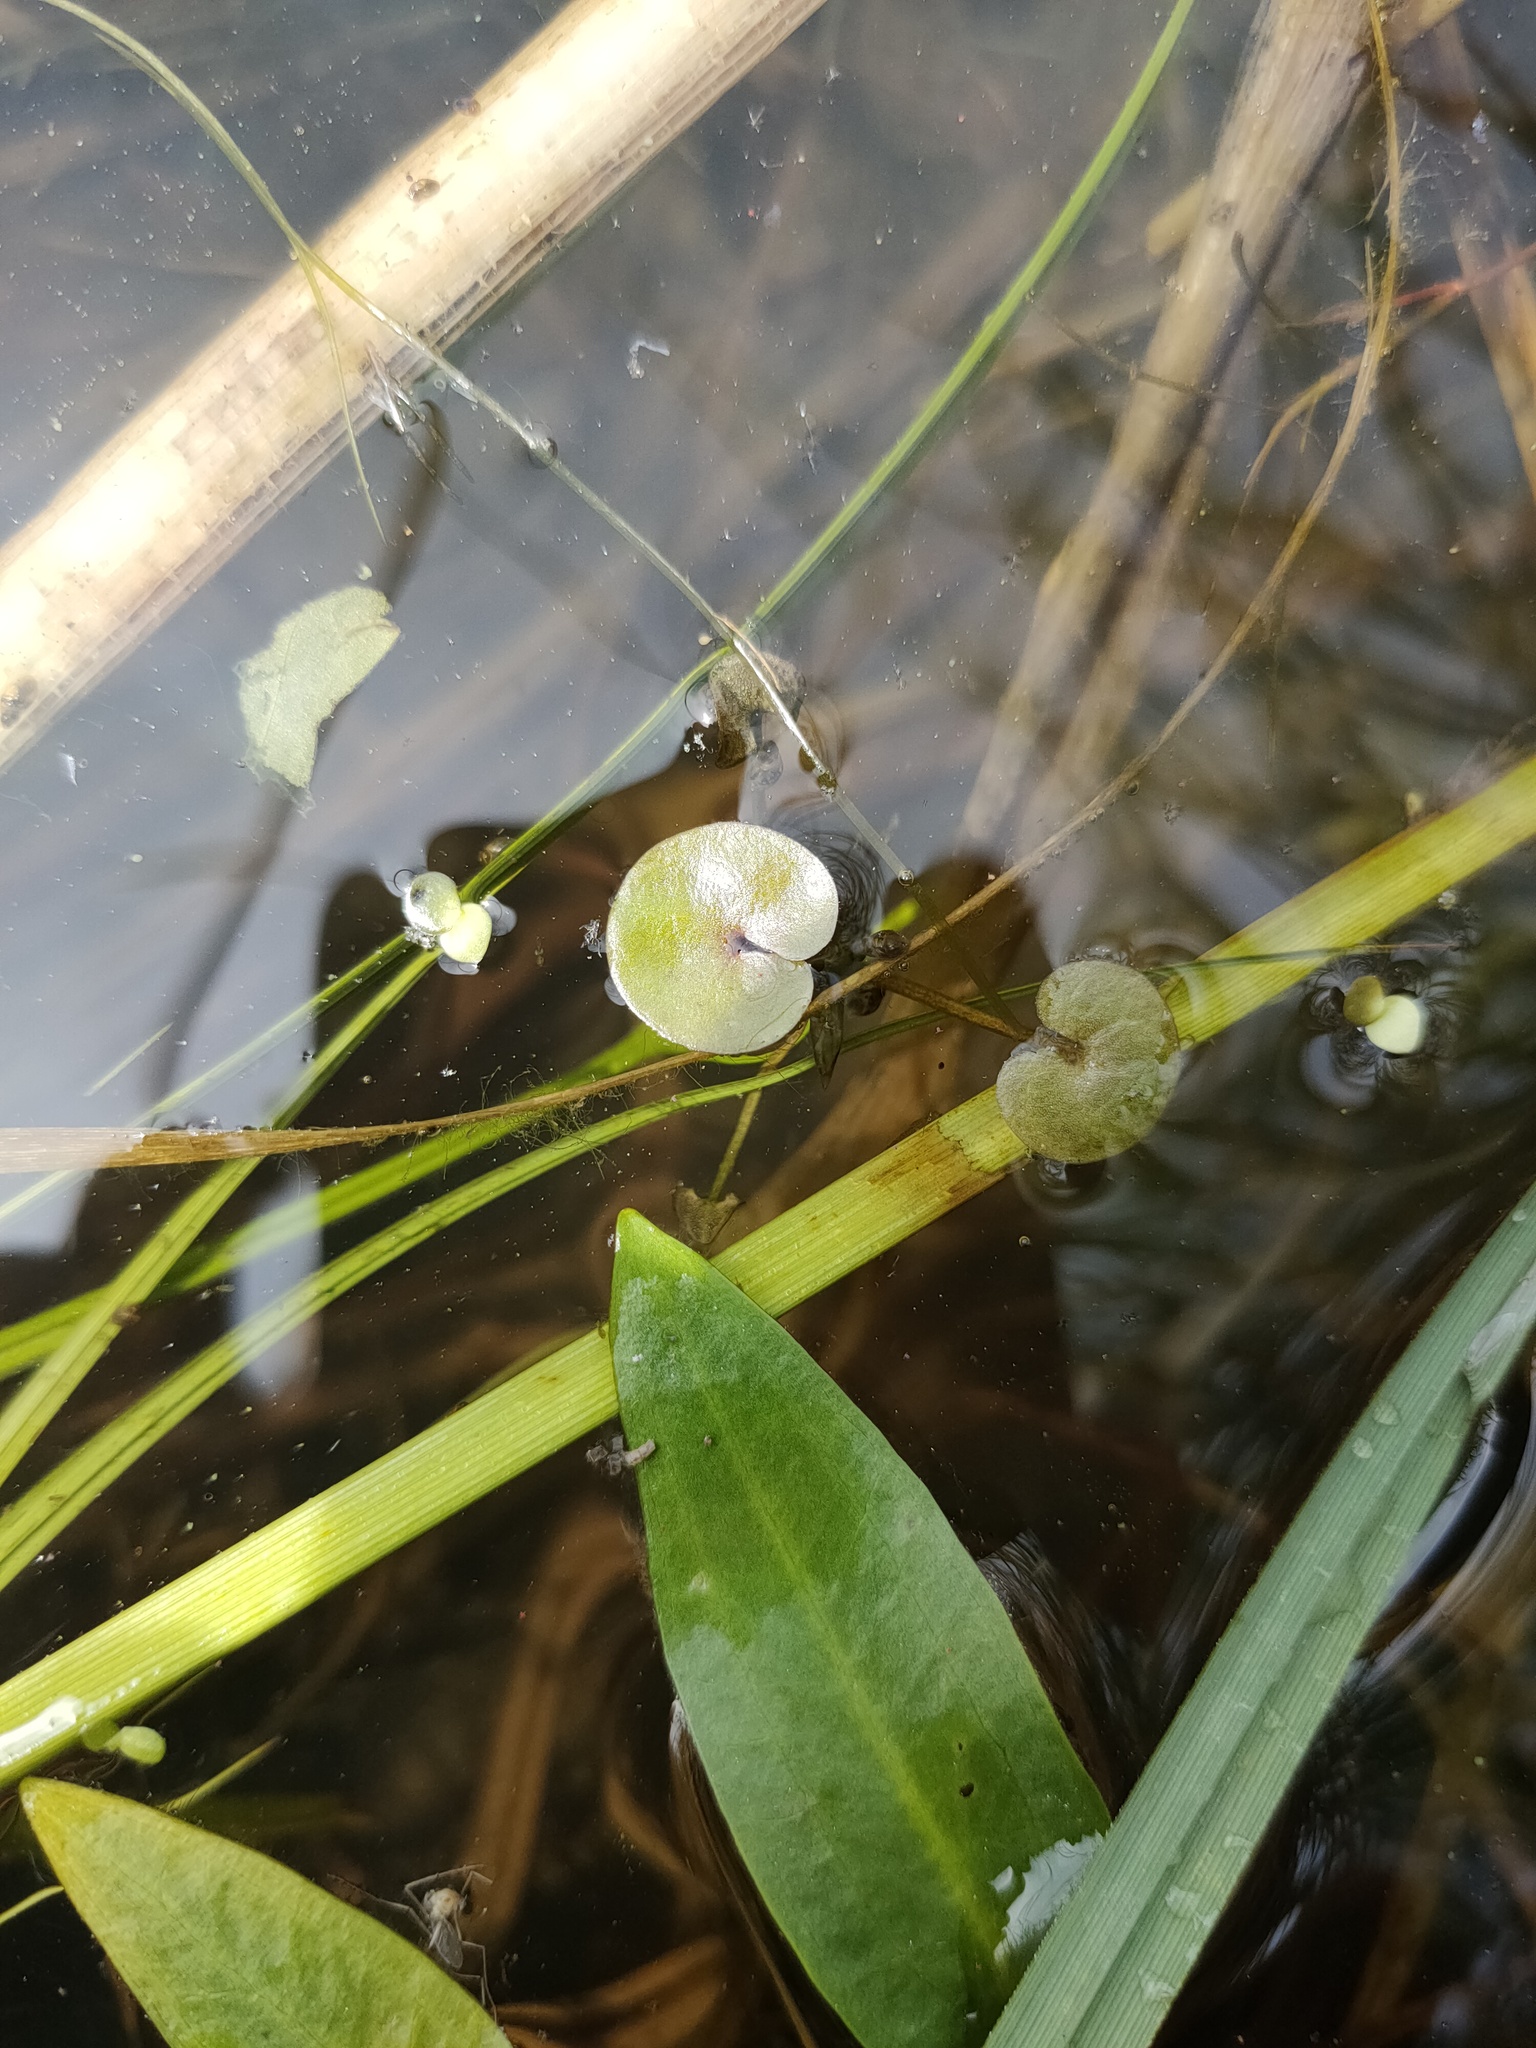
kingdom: Plantae
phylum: Tracheophyta
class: Liliopsida
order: Alismatales
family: Hydrocharitaceae
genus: Hydrocharis
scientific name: Hydrocharis morsus-ranae
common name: Frogbit
